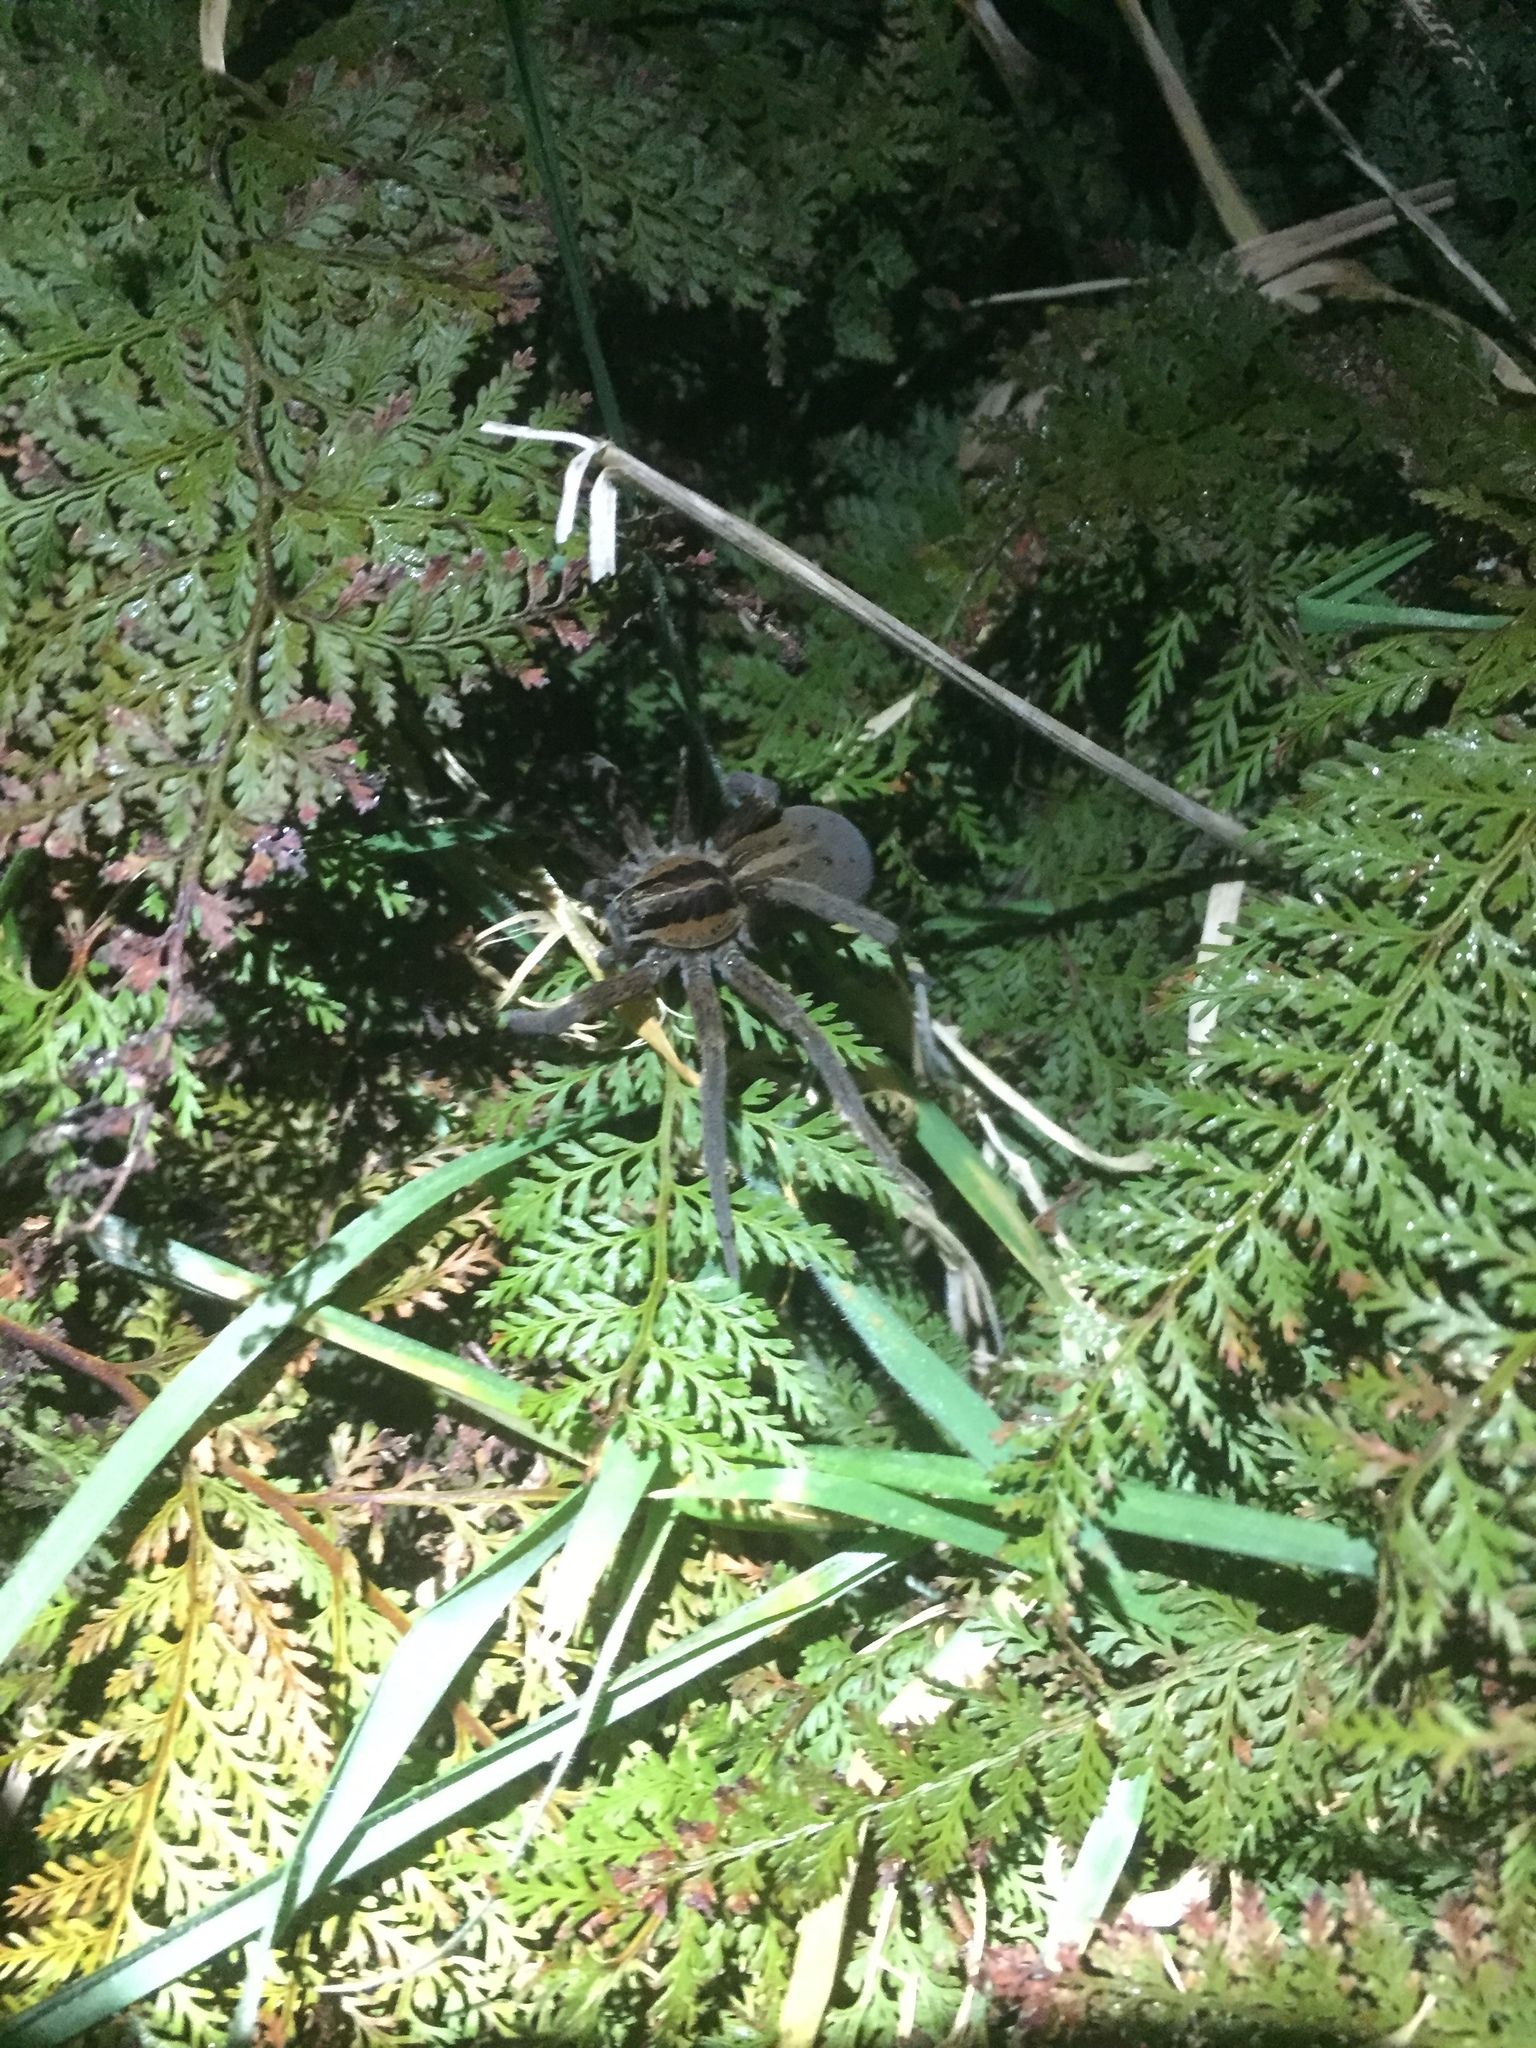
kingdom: Animalia
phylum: Arthropoda
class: Arachnida
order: Araneae
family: Pisauridae
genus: Dolomedes
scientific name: Dolomedes minor
